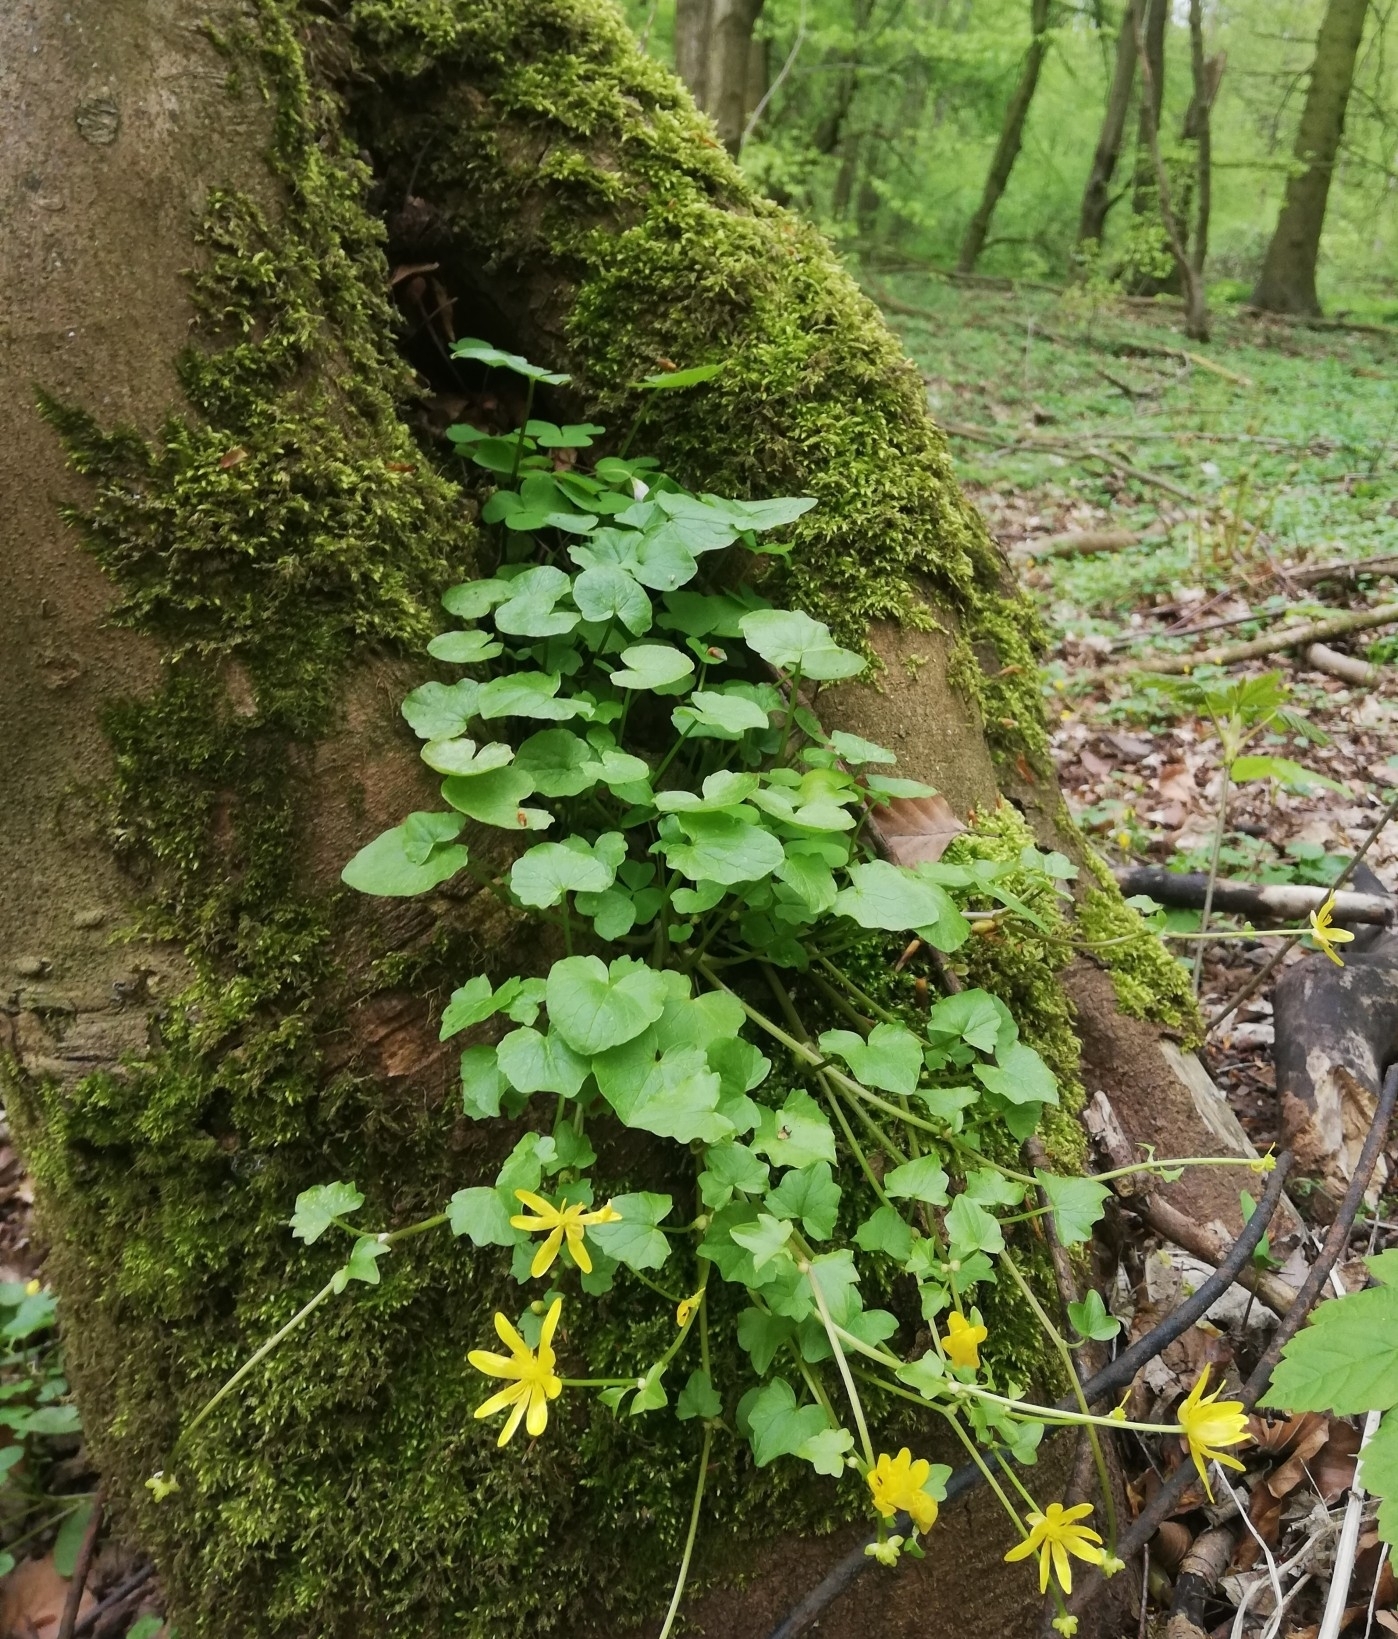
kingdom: Plantae
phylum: Tracheophyta
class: Magnoliopsida
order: Ranunculales
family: Ranunculaceae
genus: Ficaria
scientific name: Ficaria verna
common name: Lesser celandine
